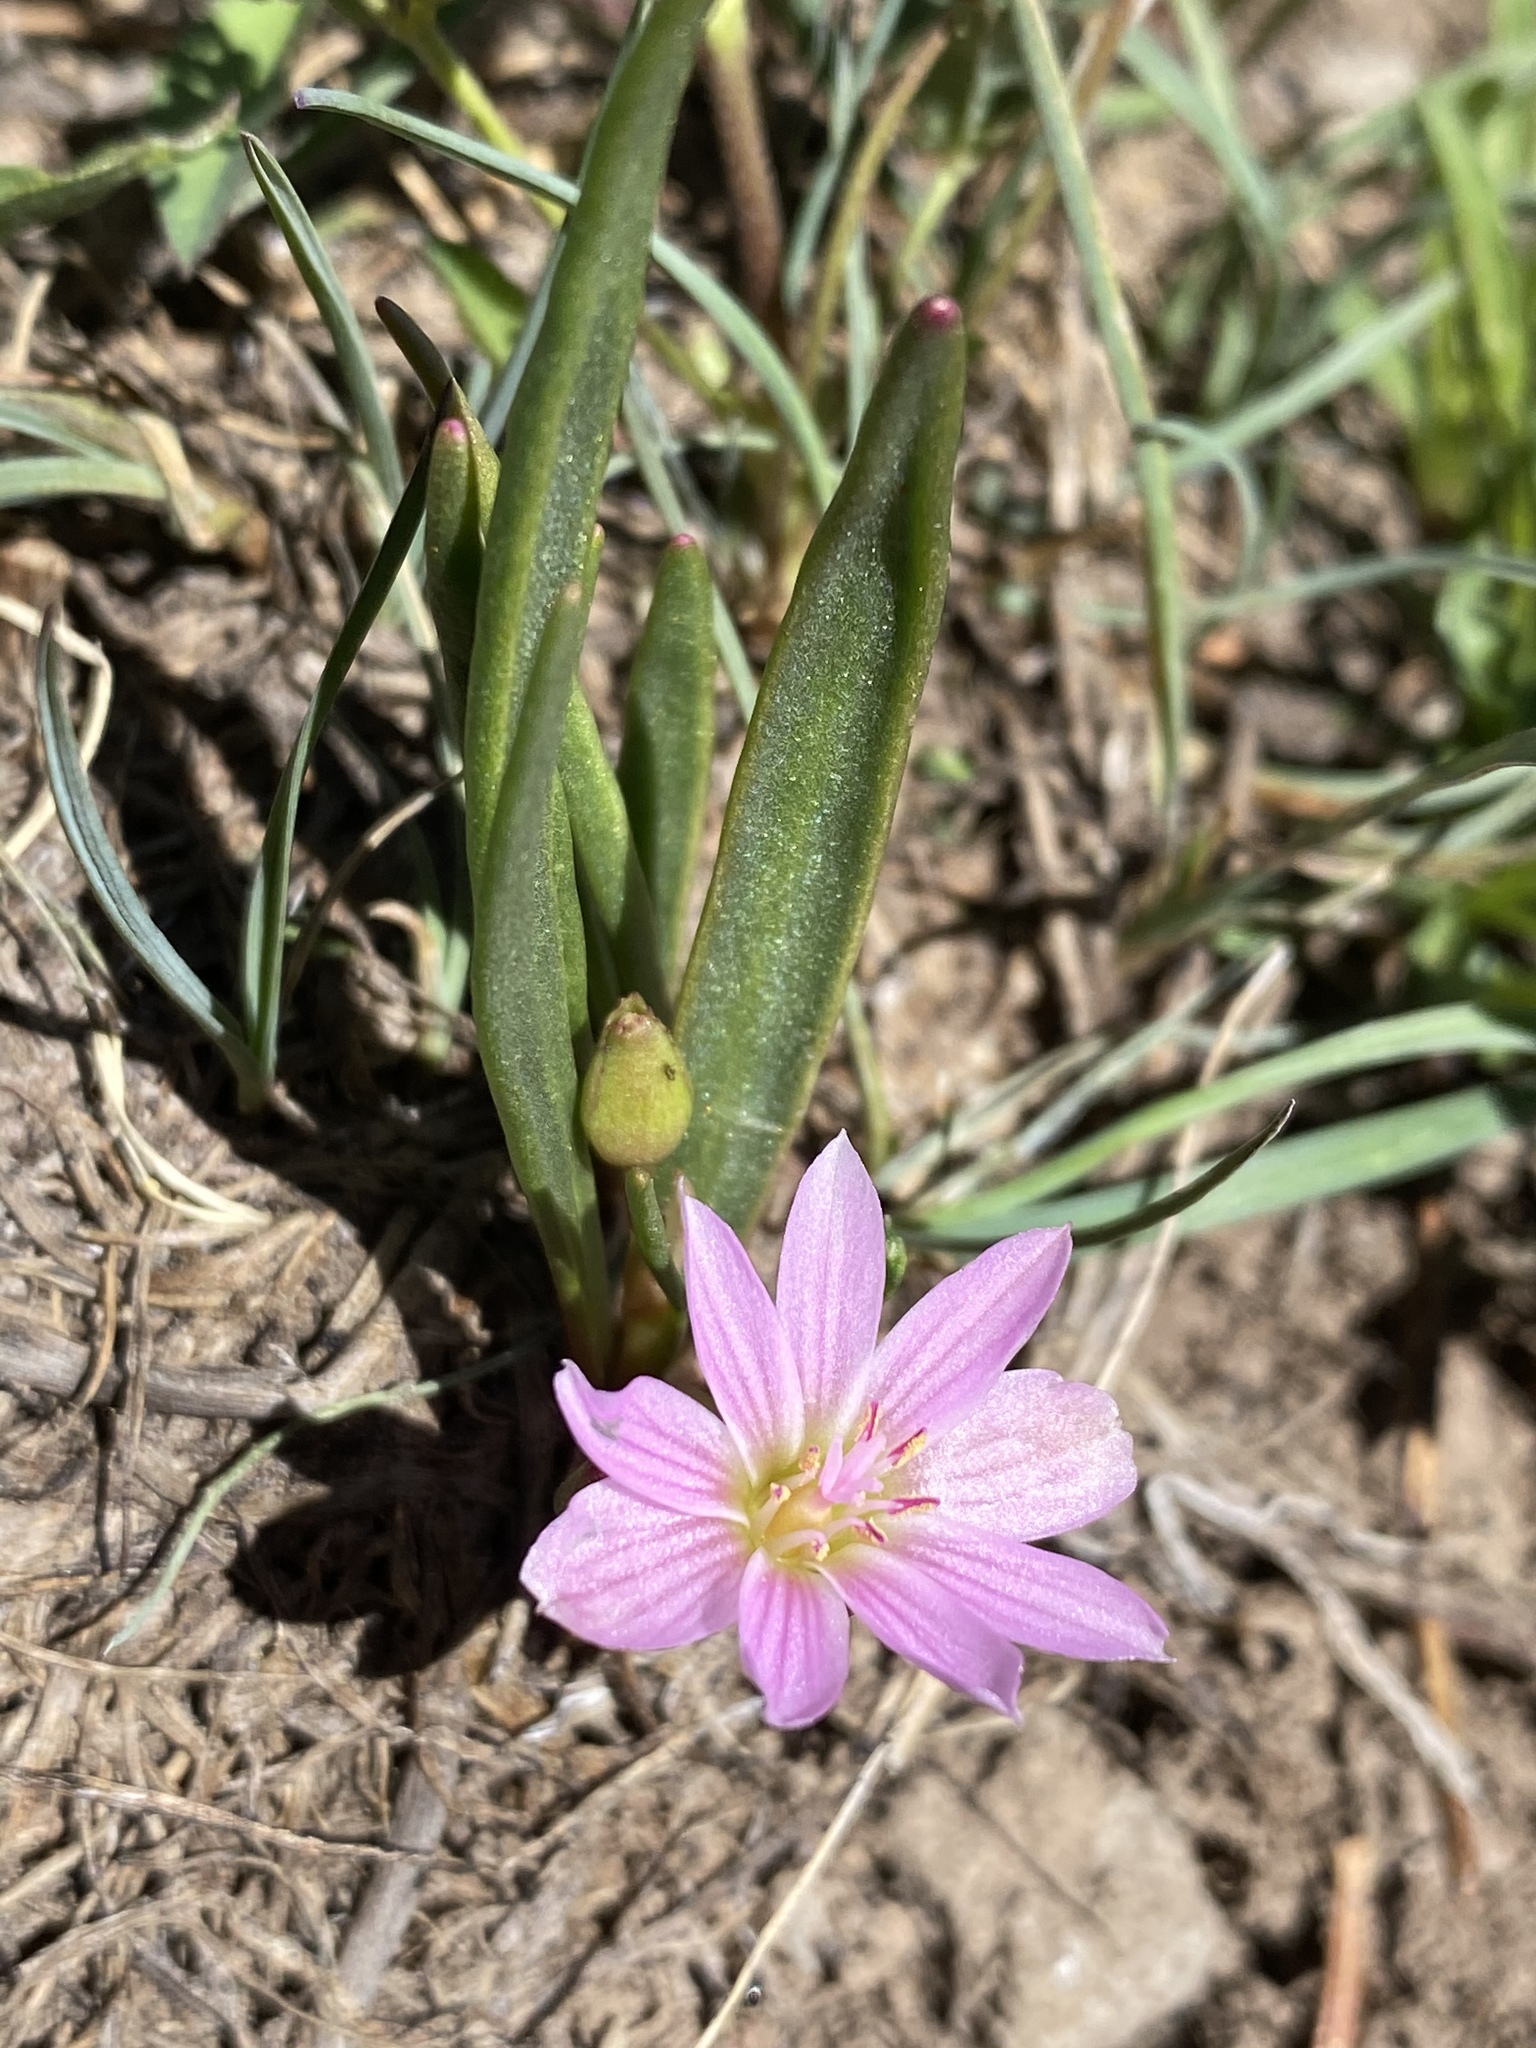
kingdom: Plantae
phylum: Tracheophyta
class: Magnoliopsida
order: Caryophyllales
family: Montiaceae
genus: Lewisia
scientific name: Lewisia pygmaea
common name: Alpine bitterroot
